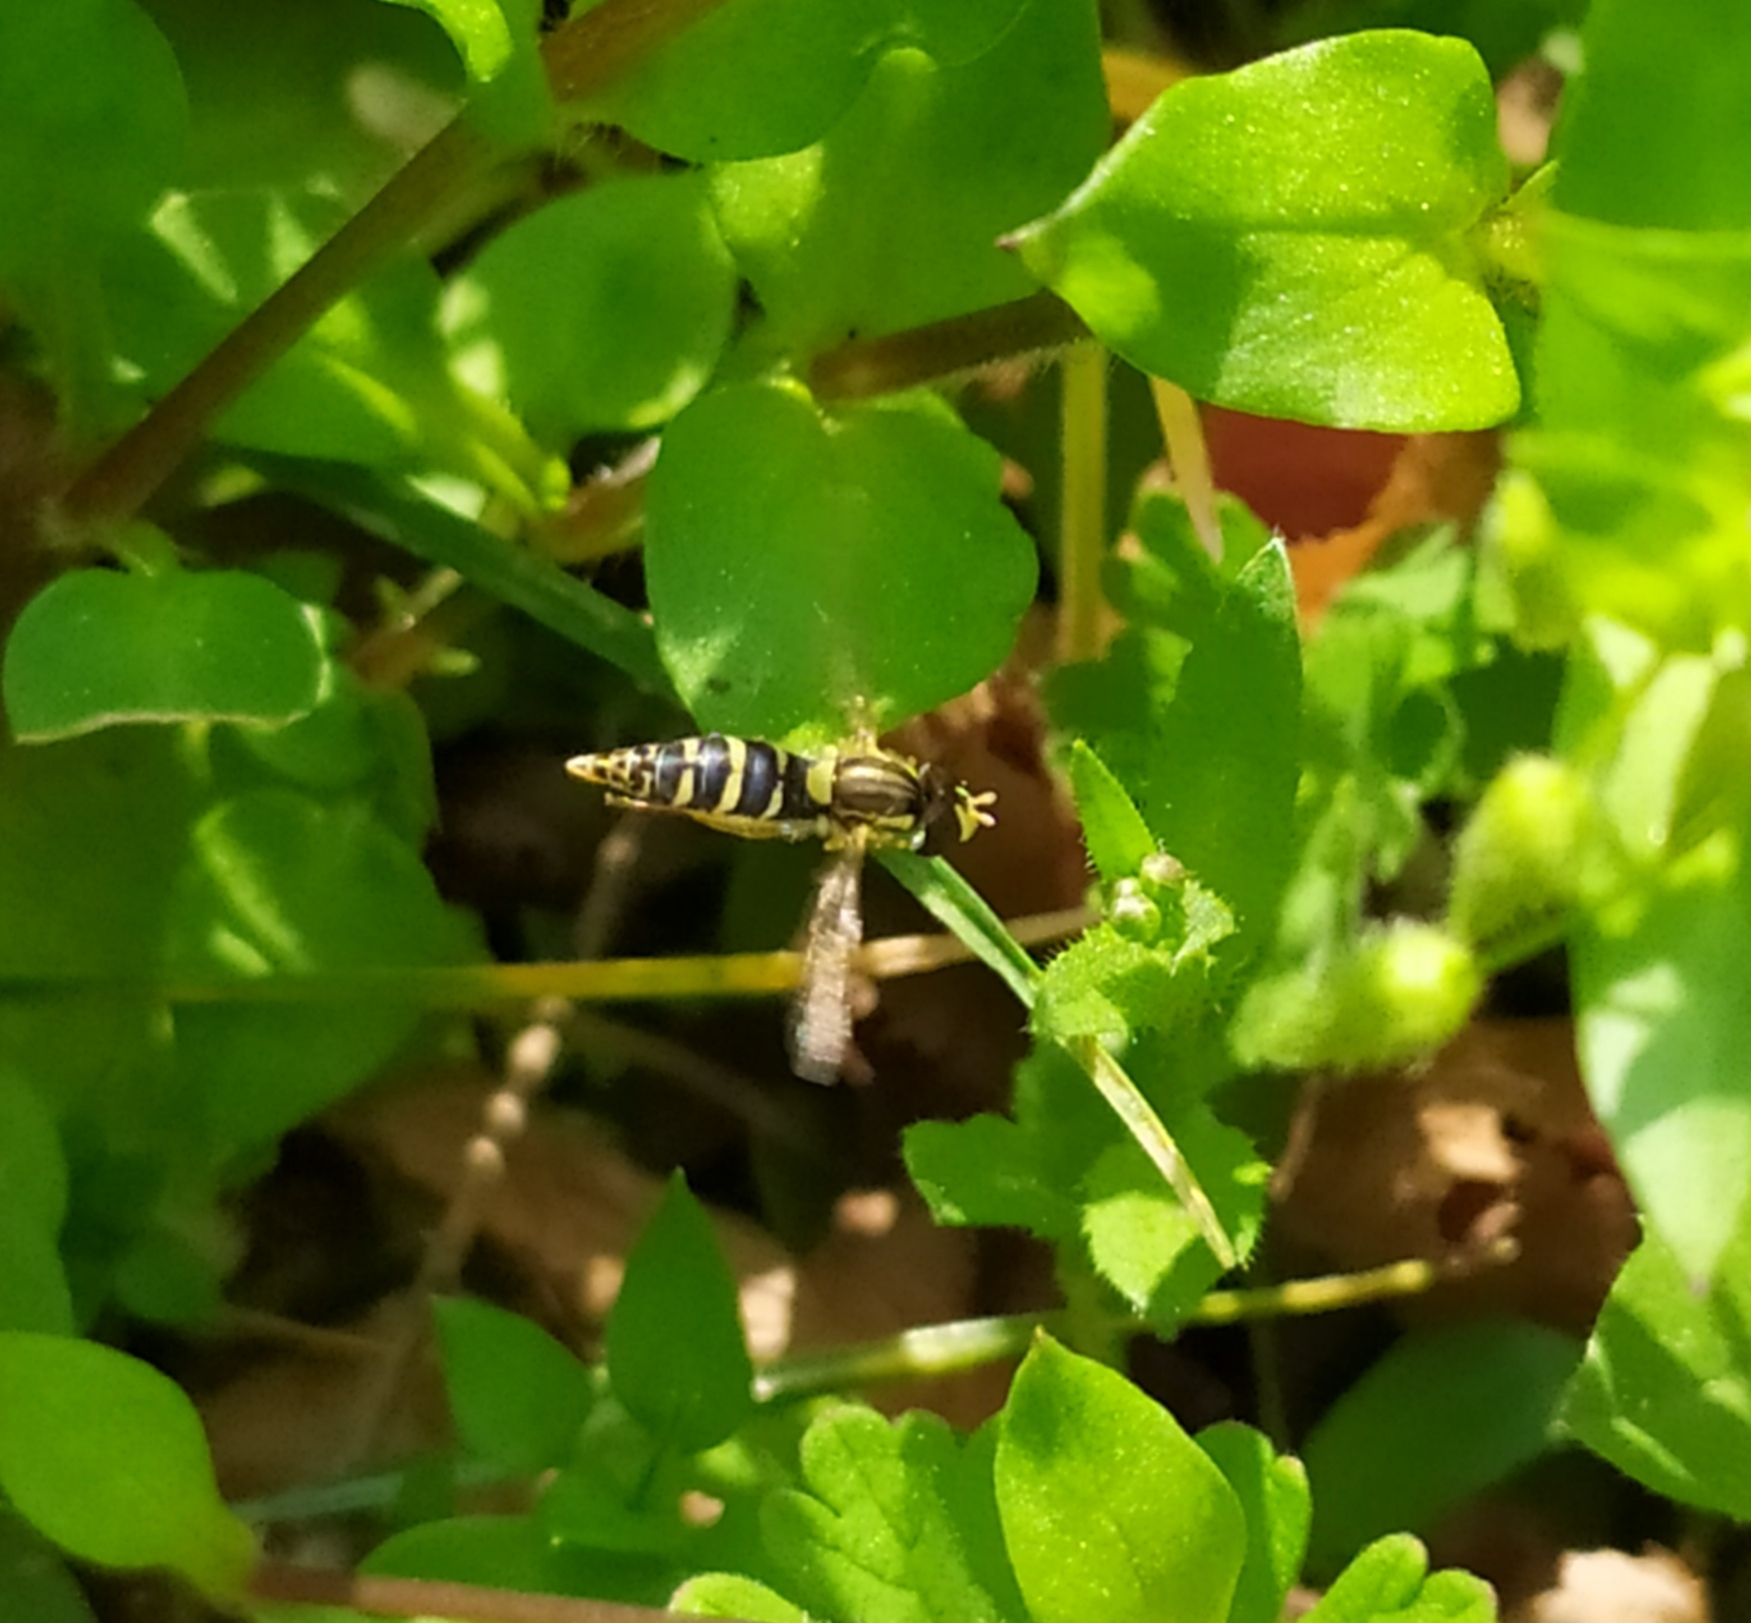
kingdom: Animalia
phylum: Arthropoda
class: Insecta
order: Diptera
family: Syrphidae
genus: Sphaerophoria
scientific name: Sphaerophoria
